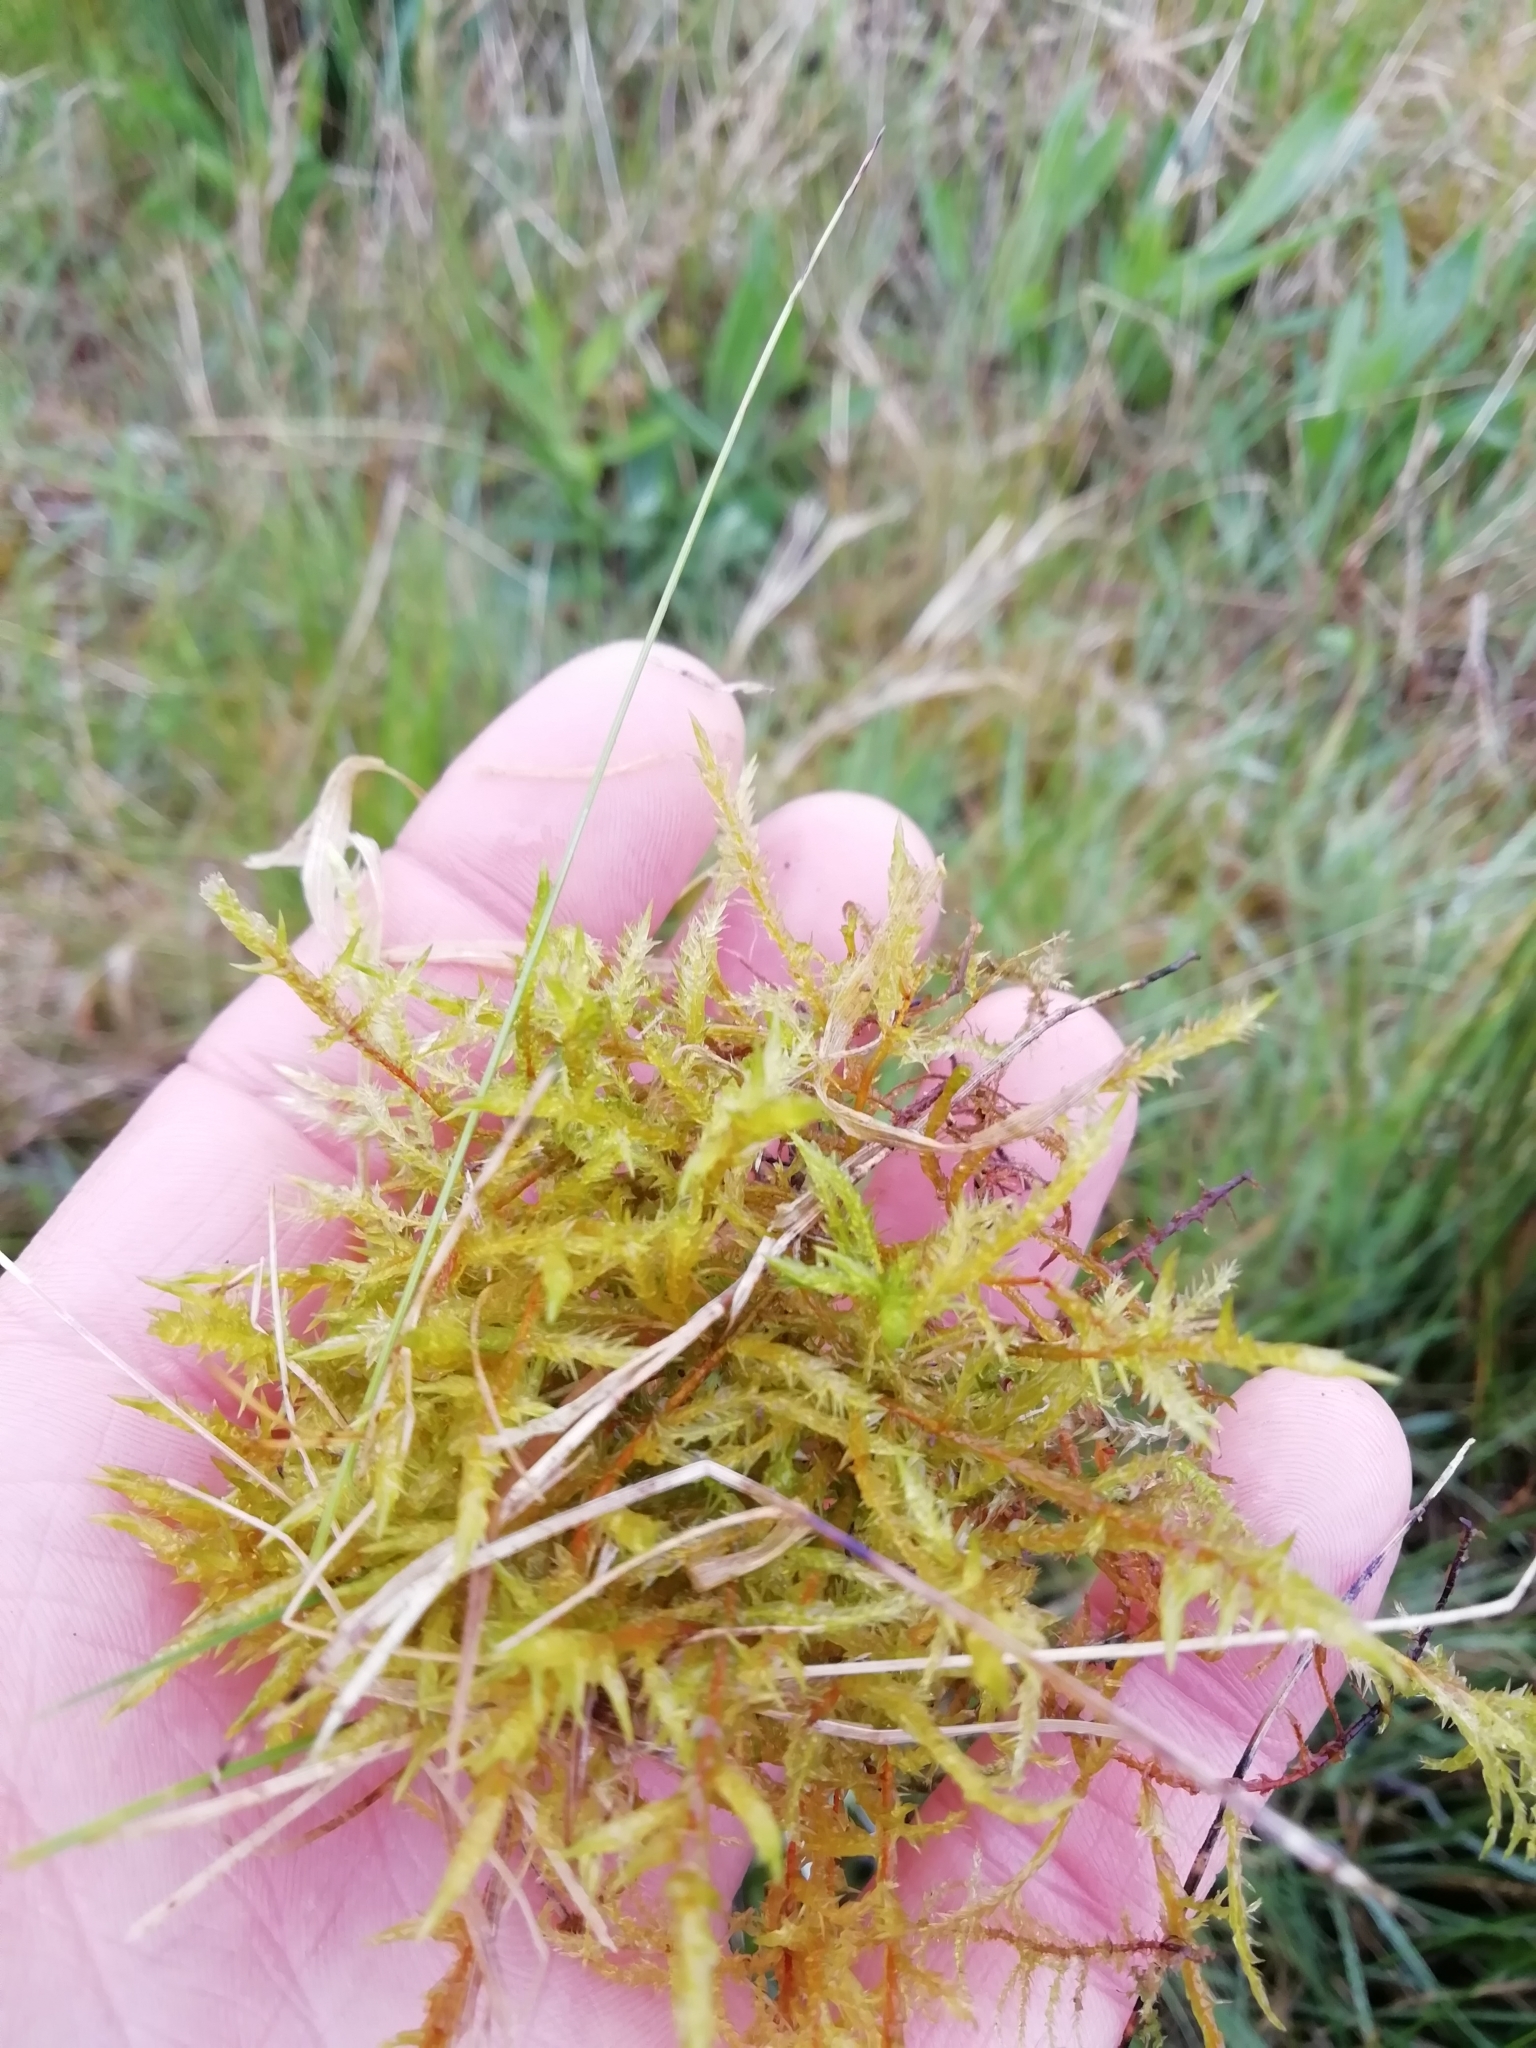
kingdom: Plantae
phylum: Bryophyta
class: Bryopsida
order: Hypnales
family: Pylaisiaceae
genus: Calliergonella
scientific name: Calliergonella cuspidata
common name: Common large wetland moss
